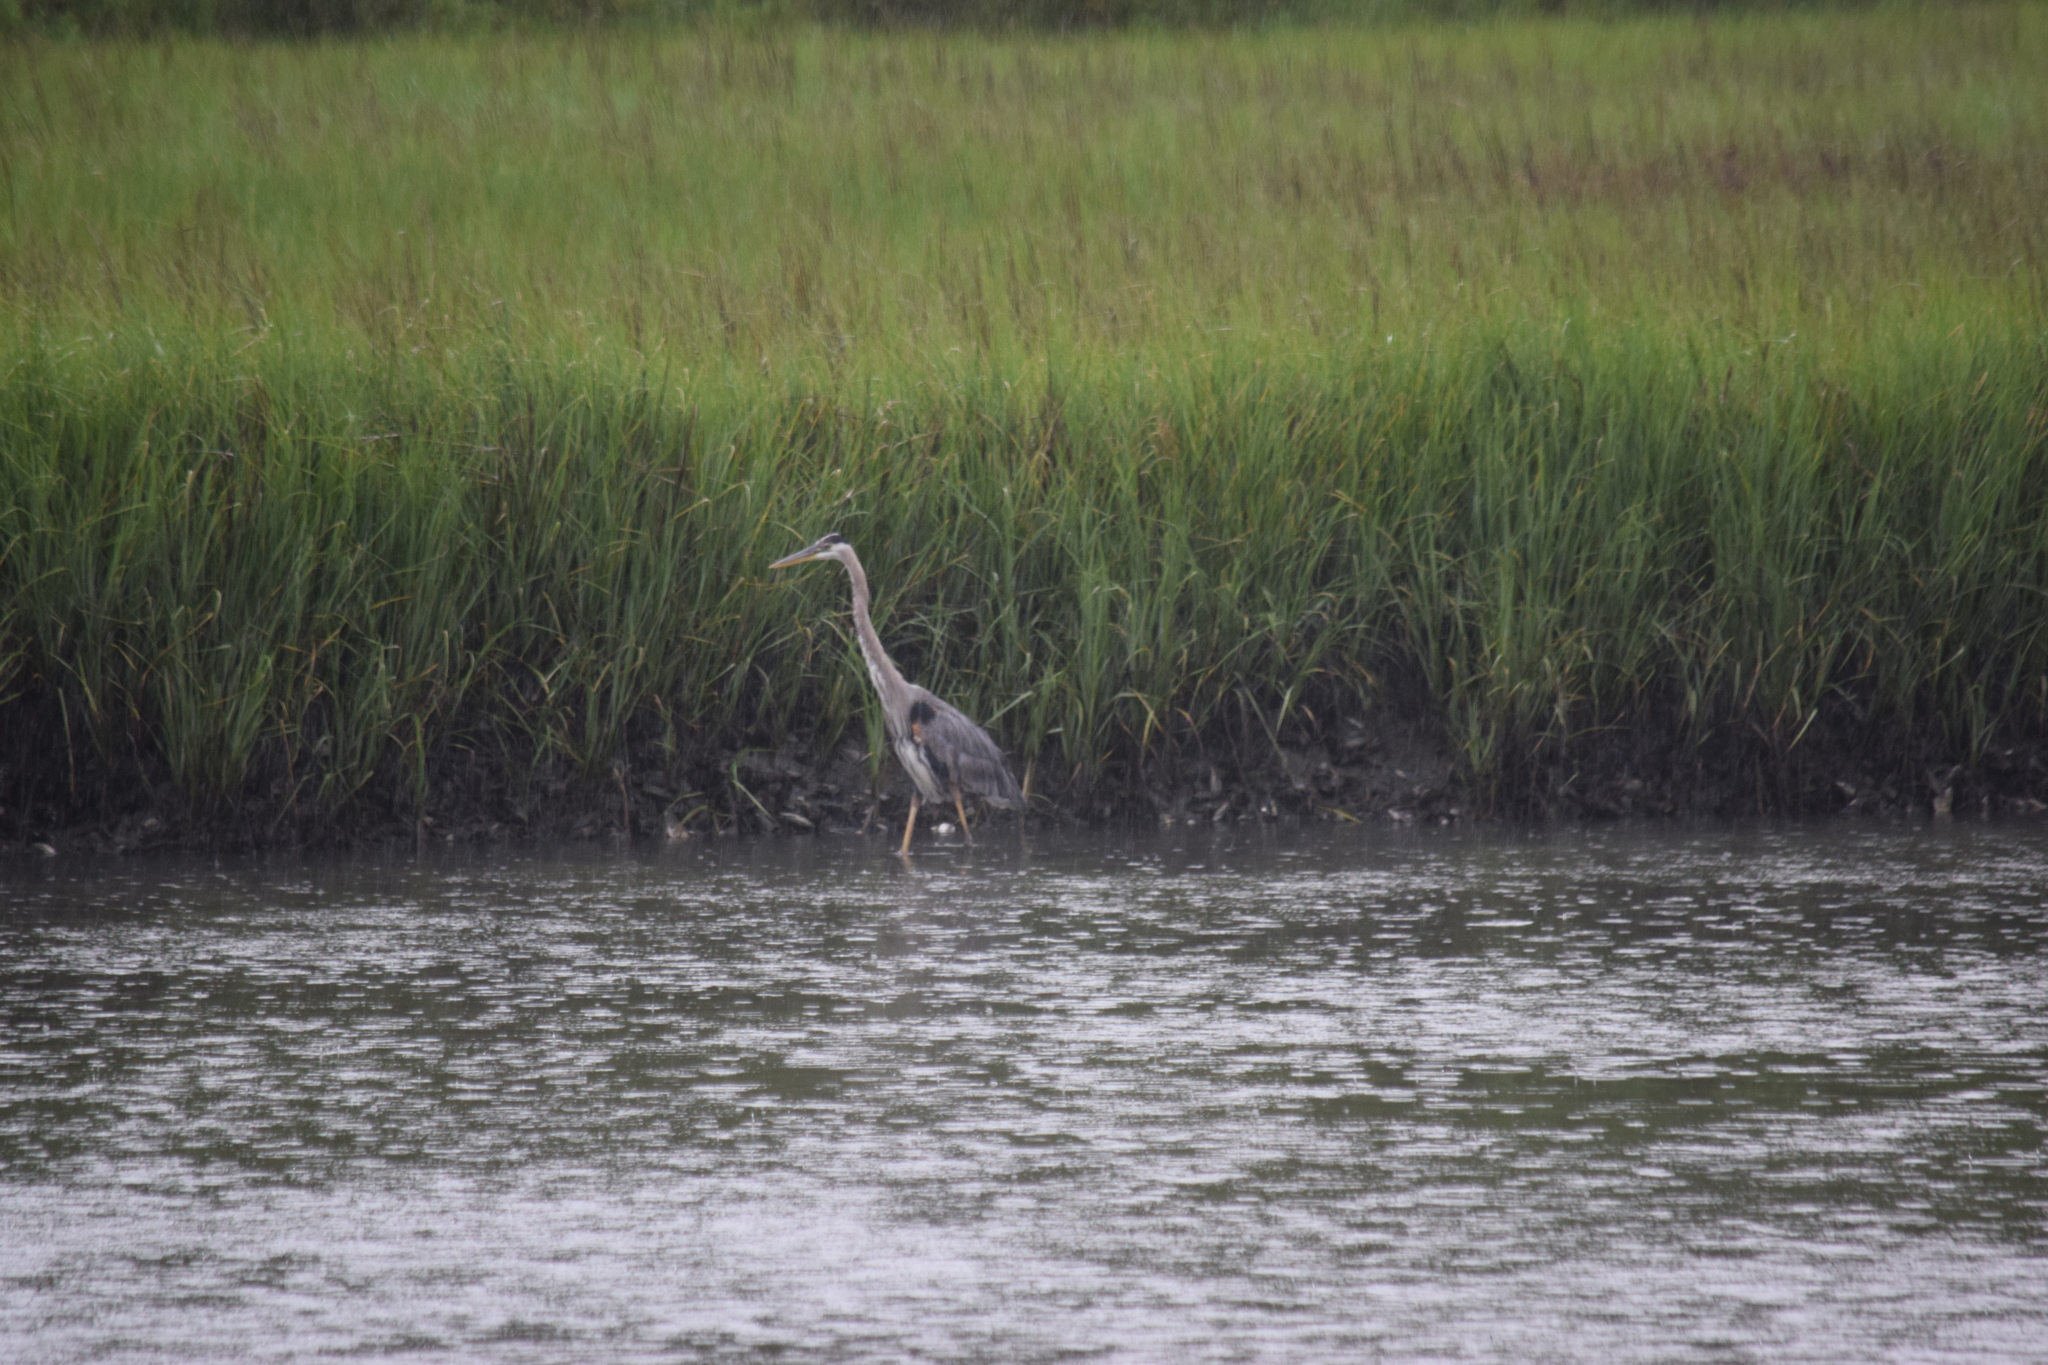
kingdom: Animalia
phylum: Chordata
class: Aves
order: Pelecaniformes
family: Ardeidae
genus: Ardea
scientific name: Ardea herodias
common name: Great blue heron
